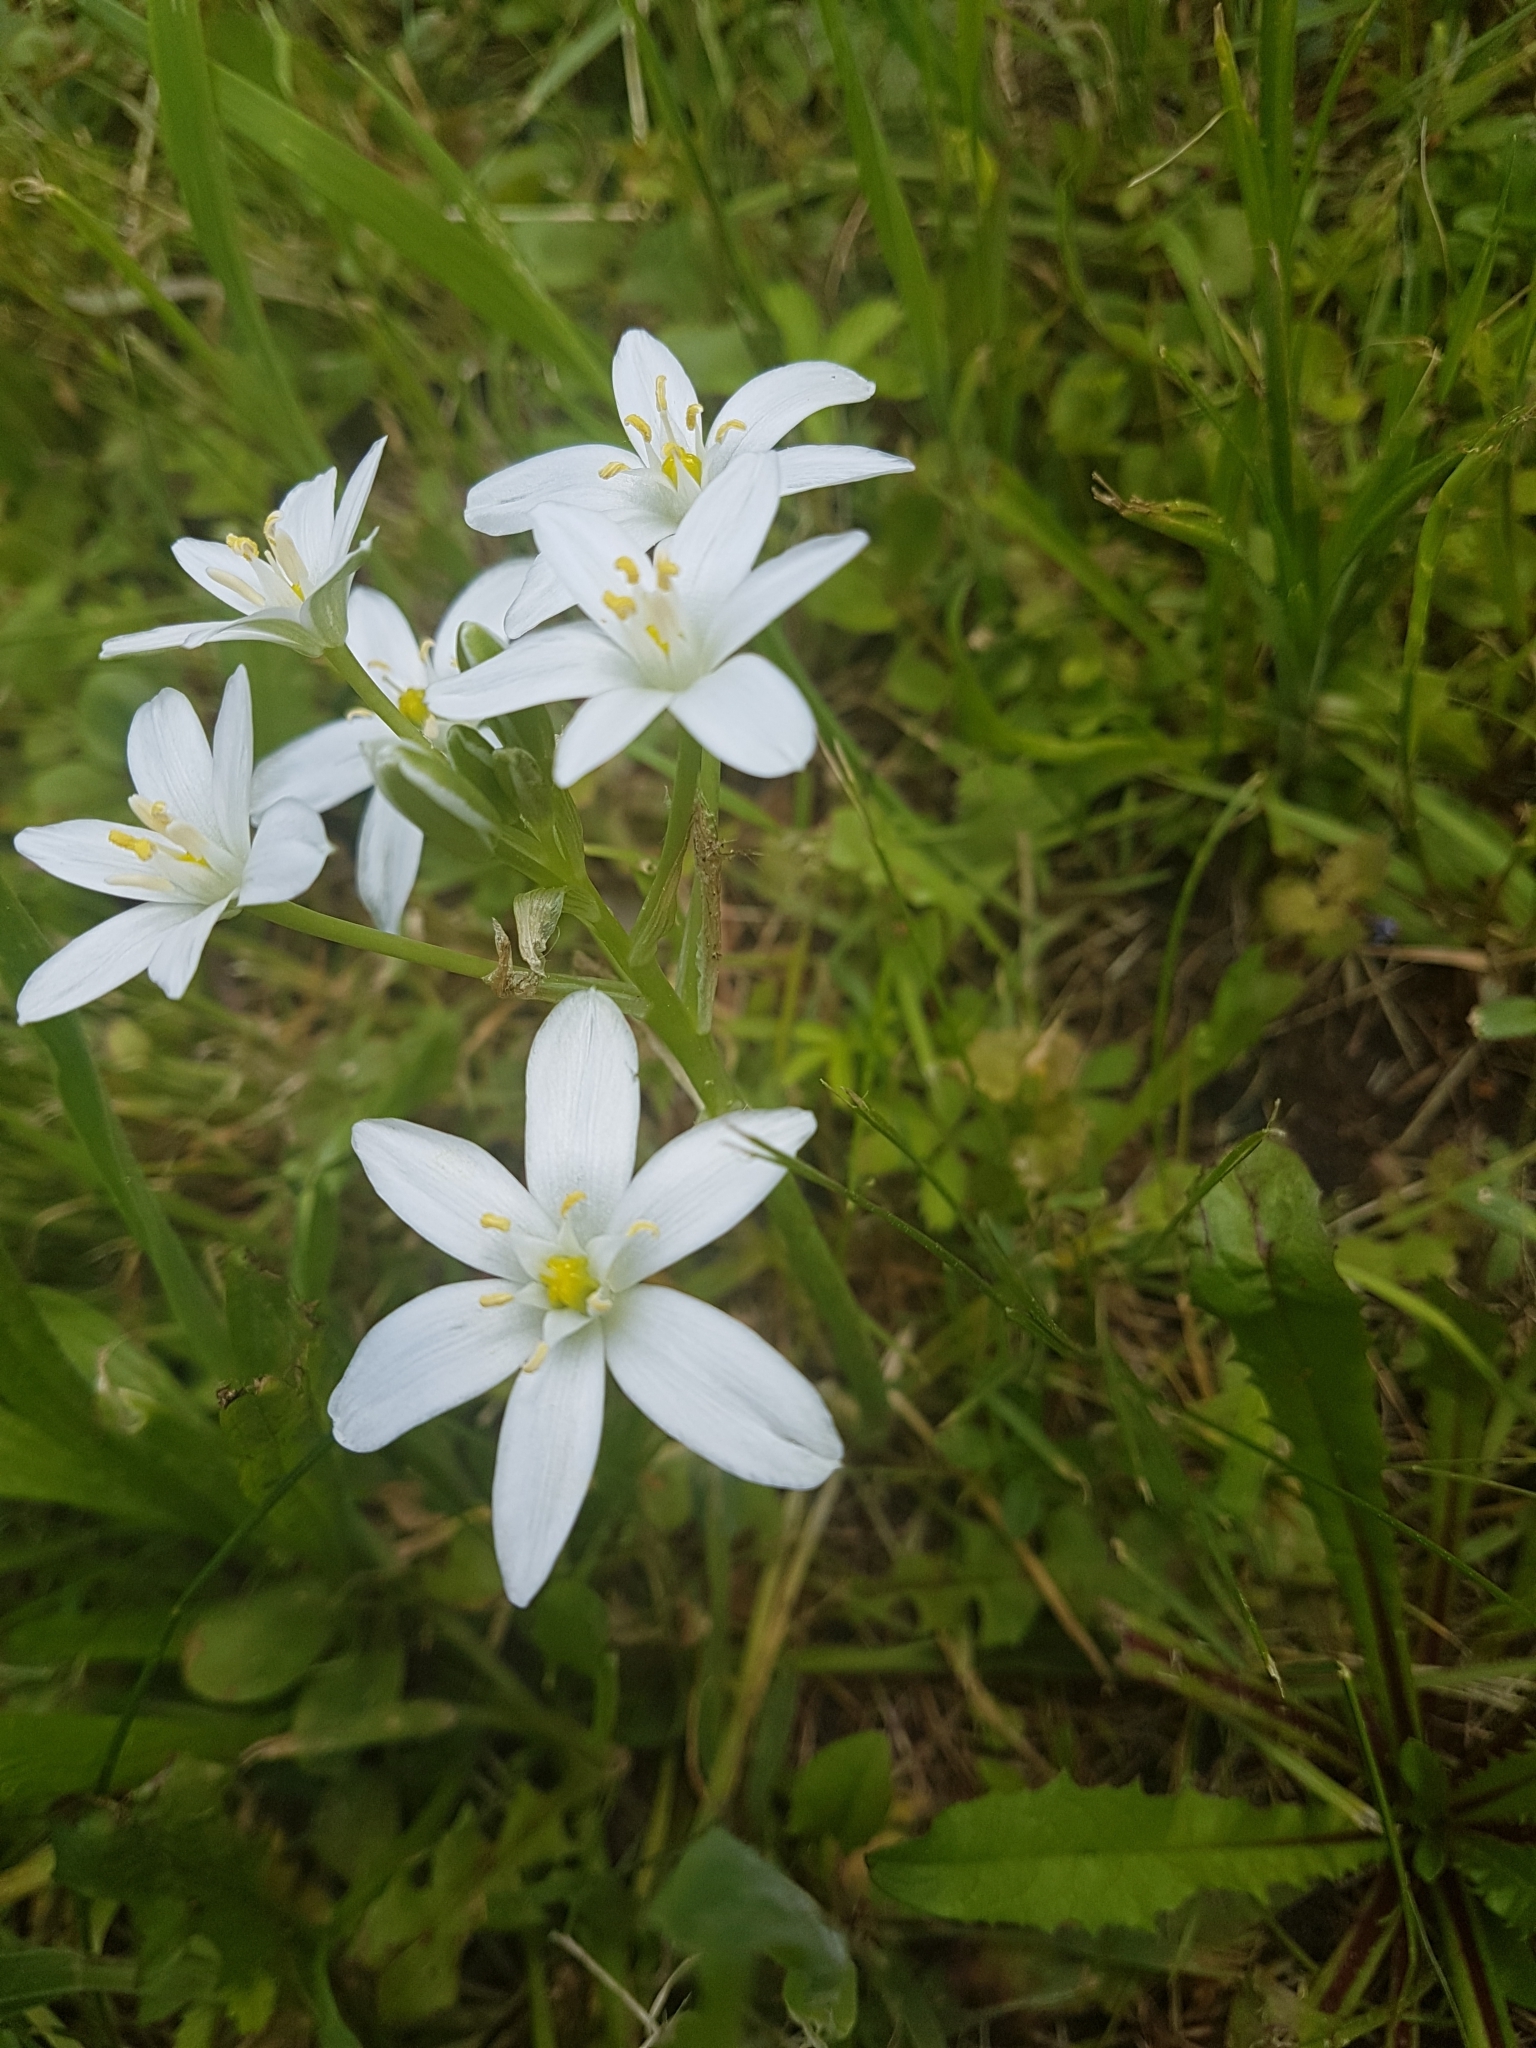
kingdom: Plantae
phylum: Tracheophyta
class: Liliopsida
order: Asparagales
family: Asparagaceae
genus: Ornithogalum
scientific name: Ornithogalum umbellatum
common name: Garden star-of-bethlehem
